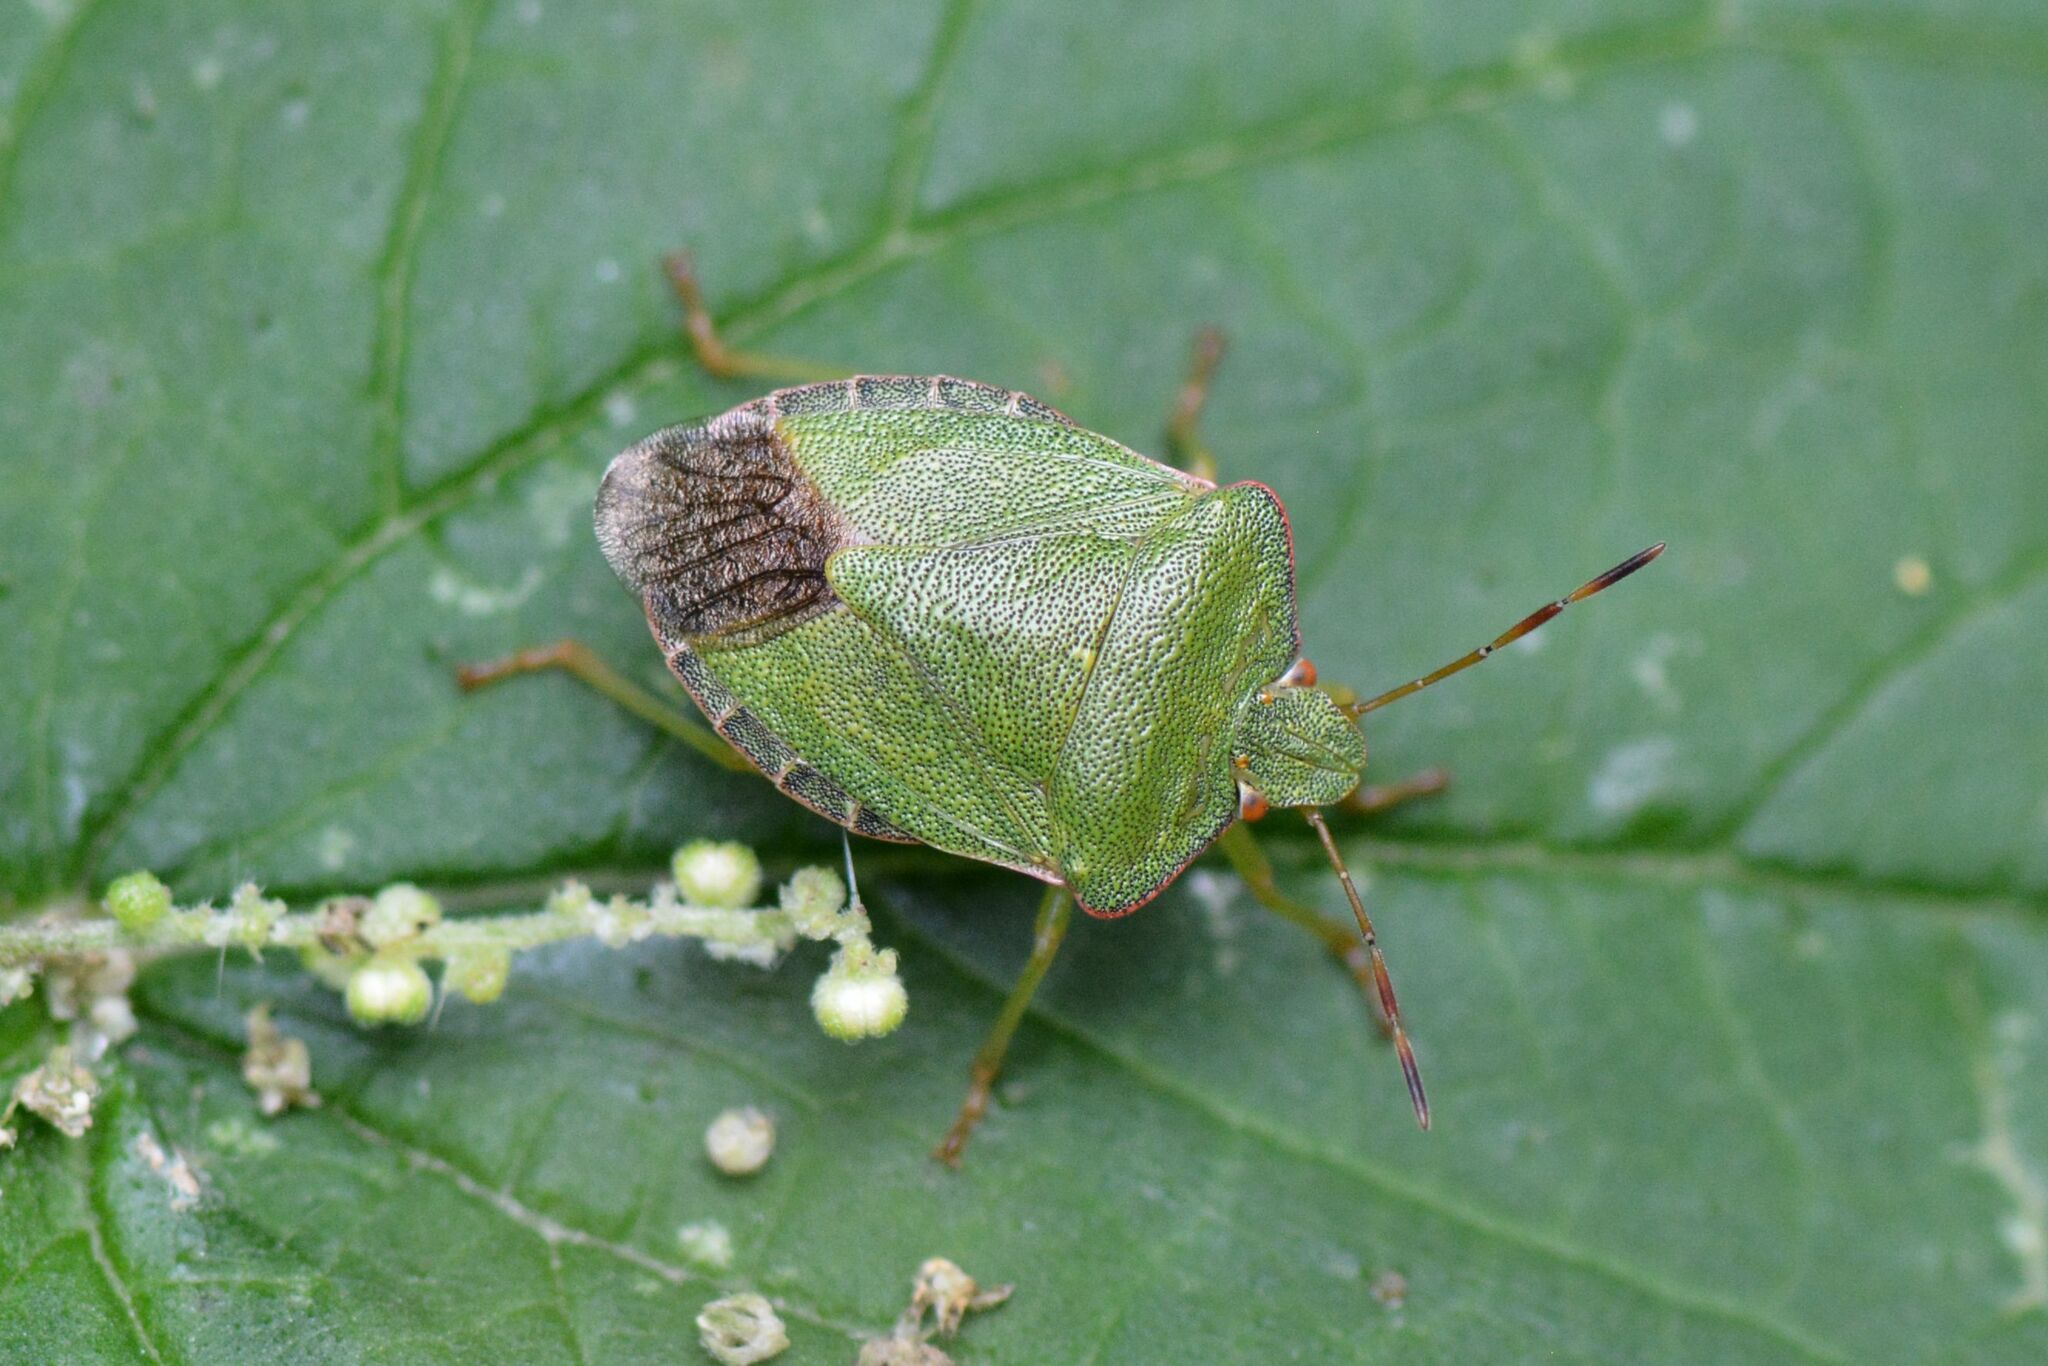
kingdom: Animalia
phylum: Arthropoda
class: Insecta
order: Hemiptera
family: Pentatomidae
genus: Palomena
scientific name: Palomena prasina
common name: Green shieldbug
